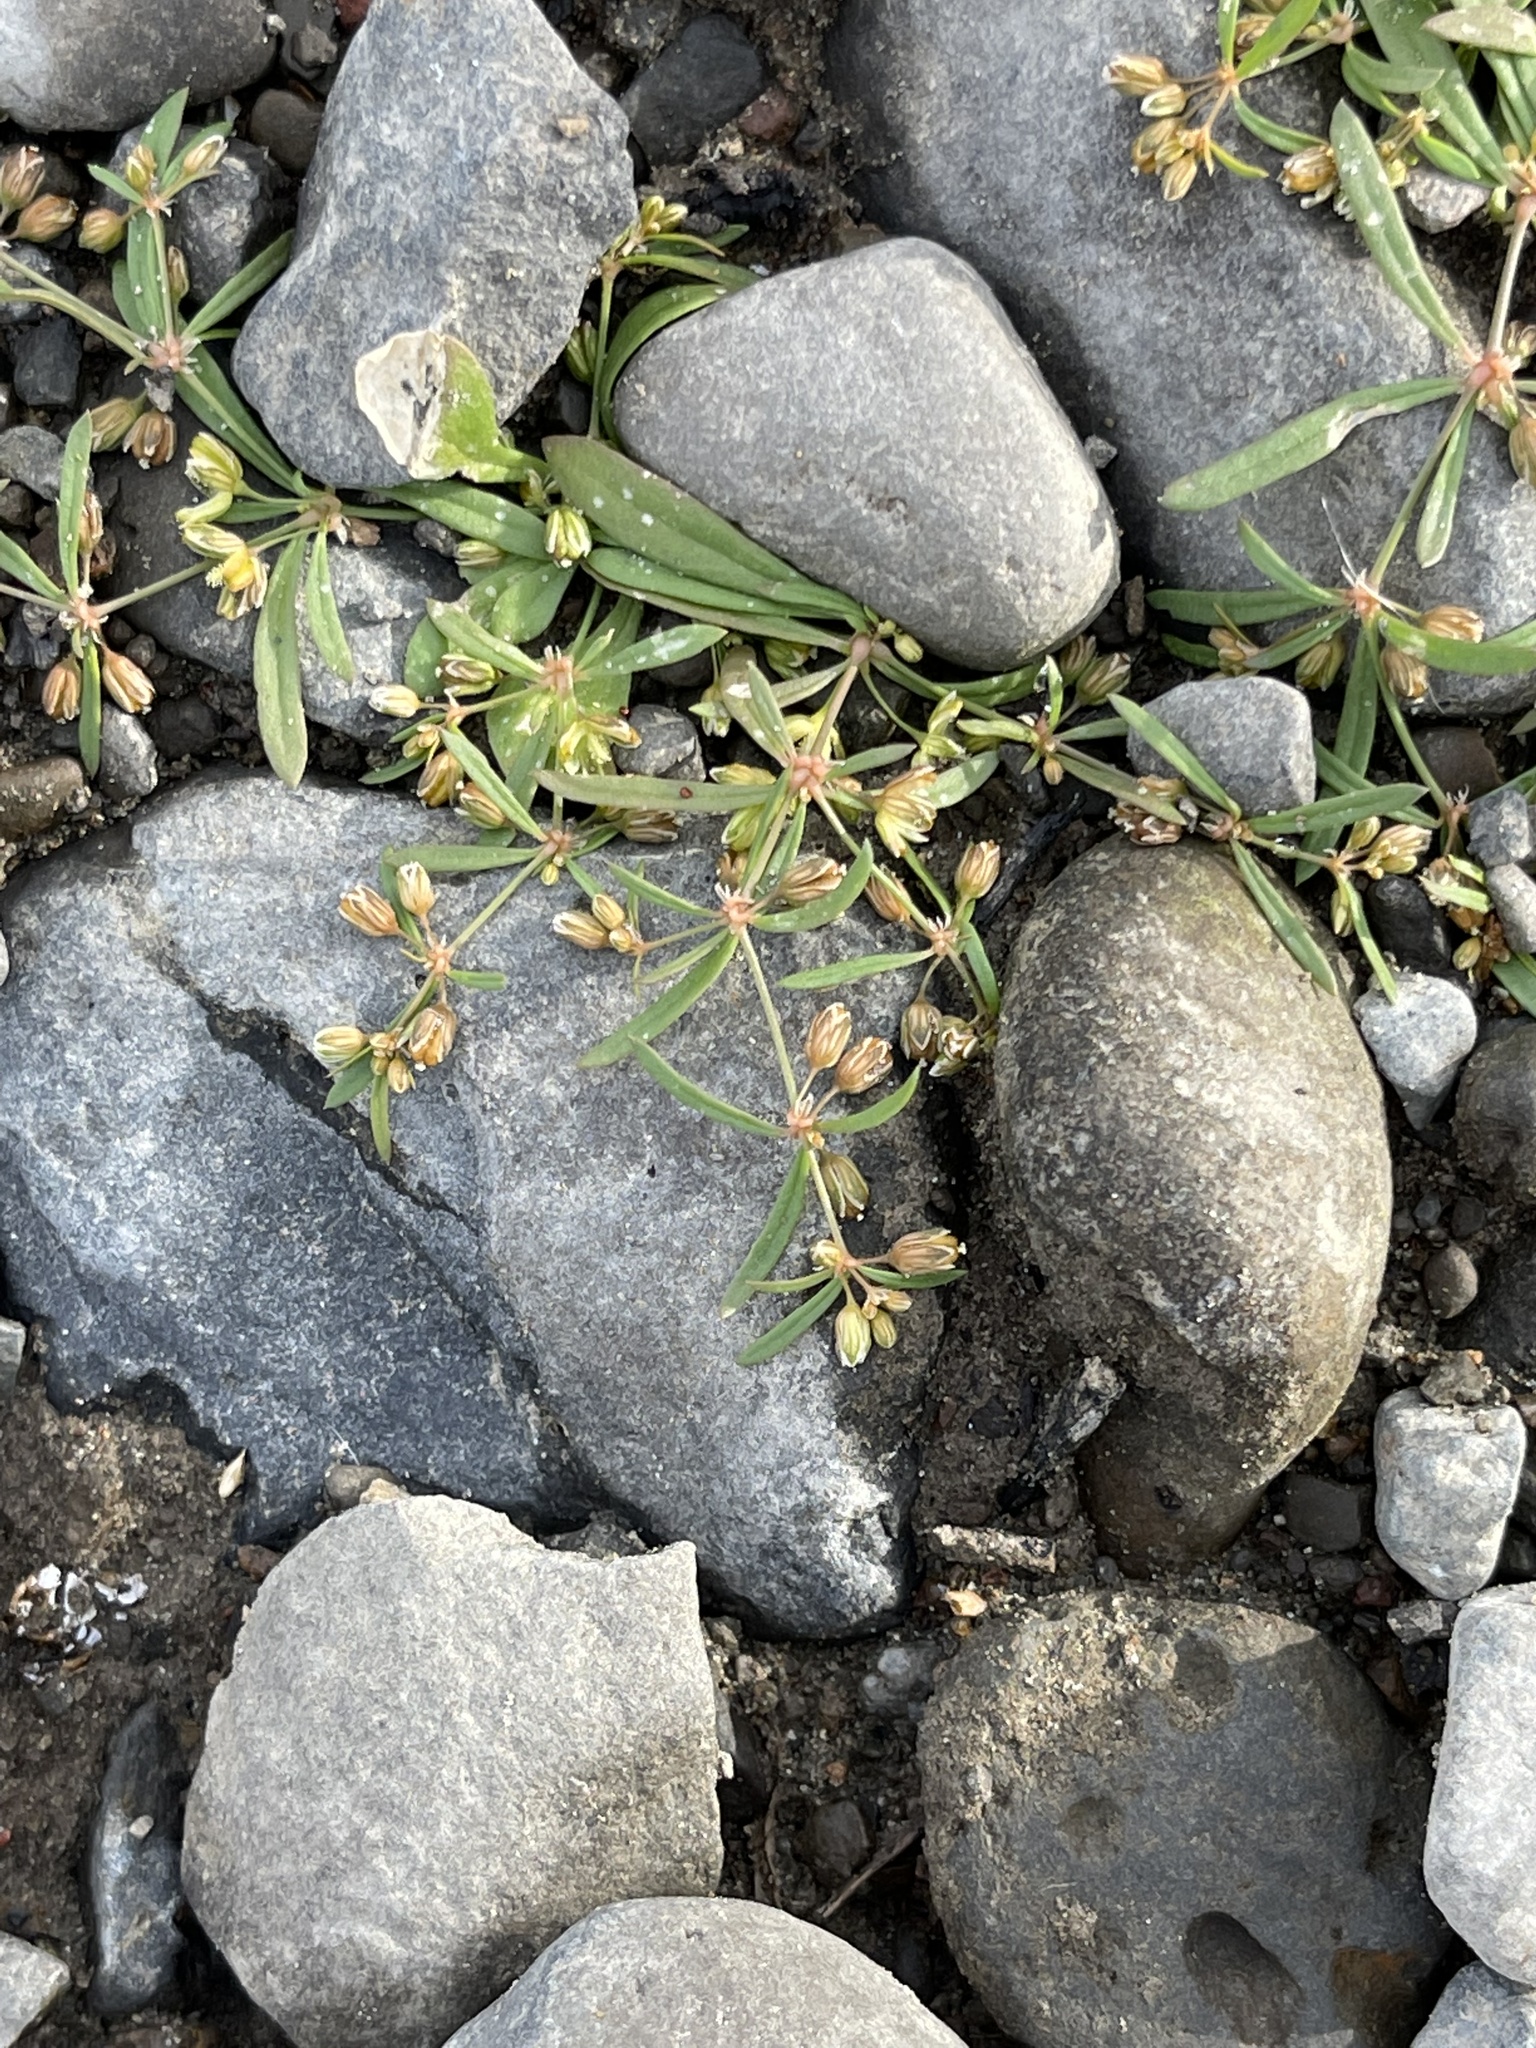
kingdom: Plantae
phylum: Tracheophyta
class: Magnoliopsida
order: Caryophyllales
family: Molluginaceae
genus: Mollugo
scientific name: Mollugo verticillata
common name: Green carpetweed
